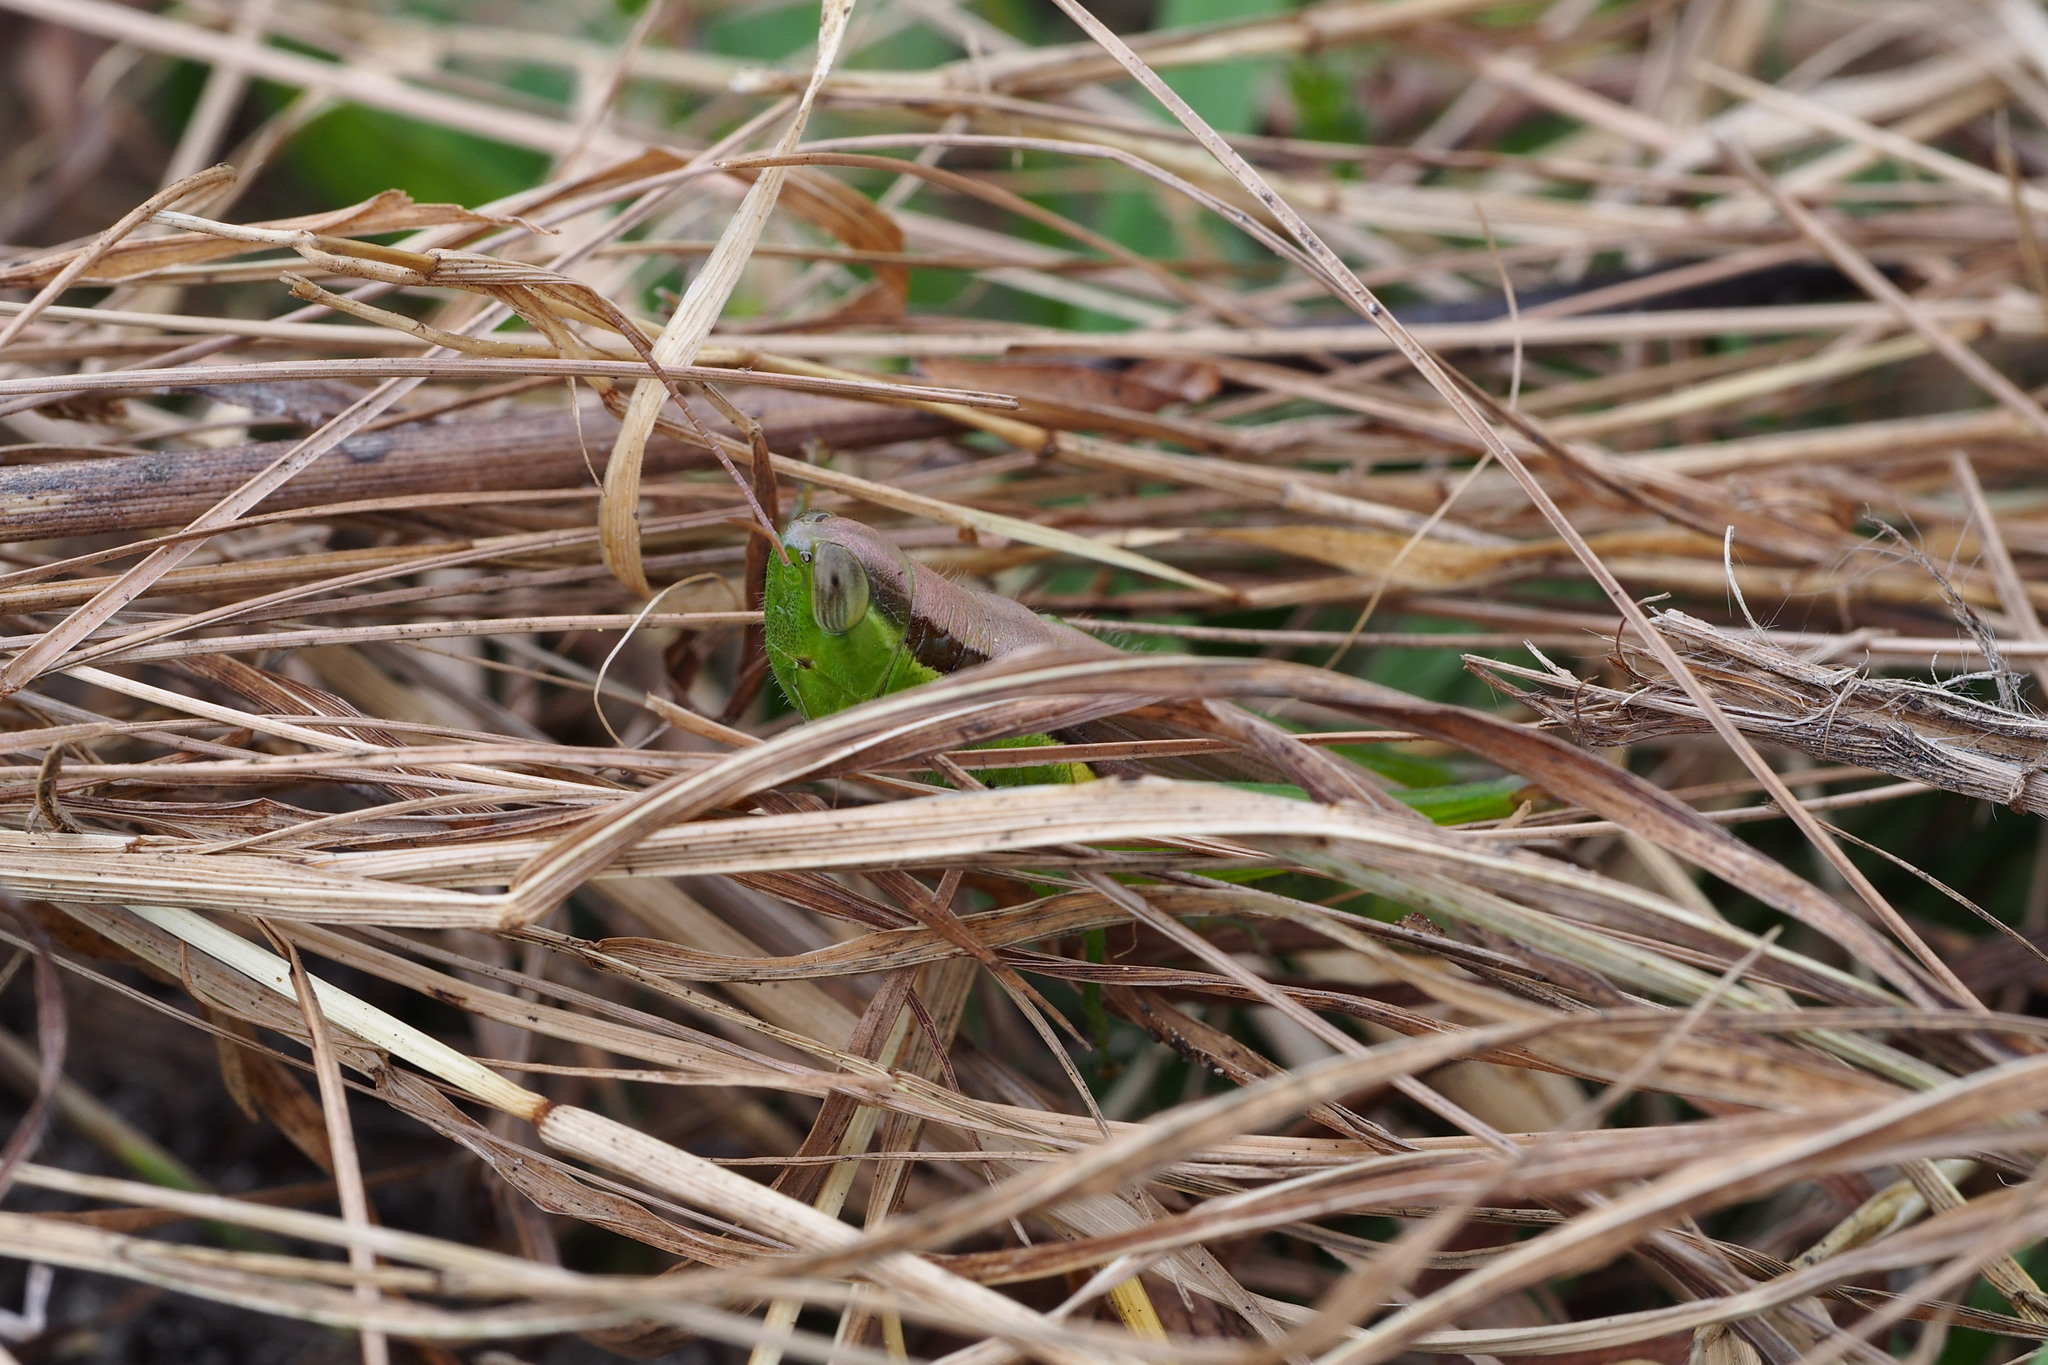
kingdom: Animalia
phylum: Arthropoda
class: Insecta
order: Orthoptera
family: Acrididae
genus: Oxya
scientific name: Oxya yezoensis
